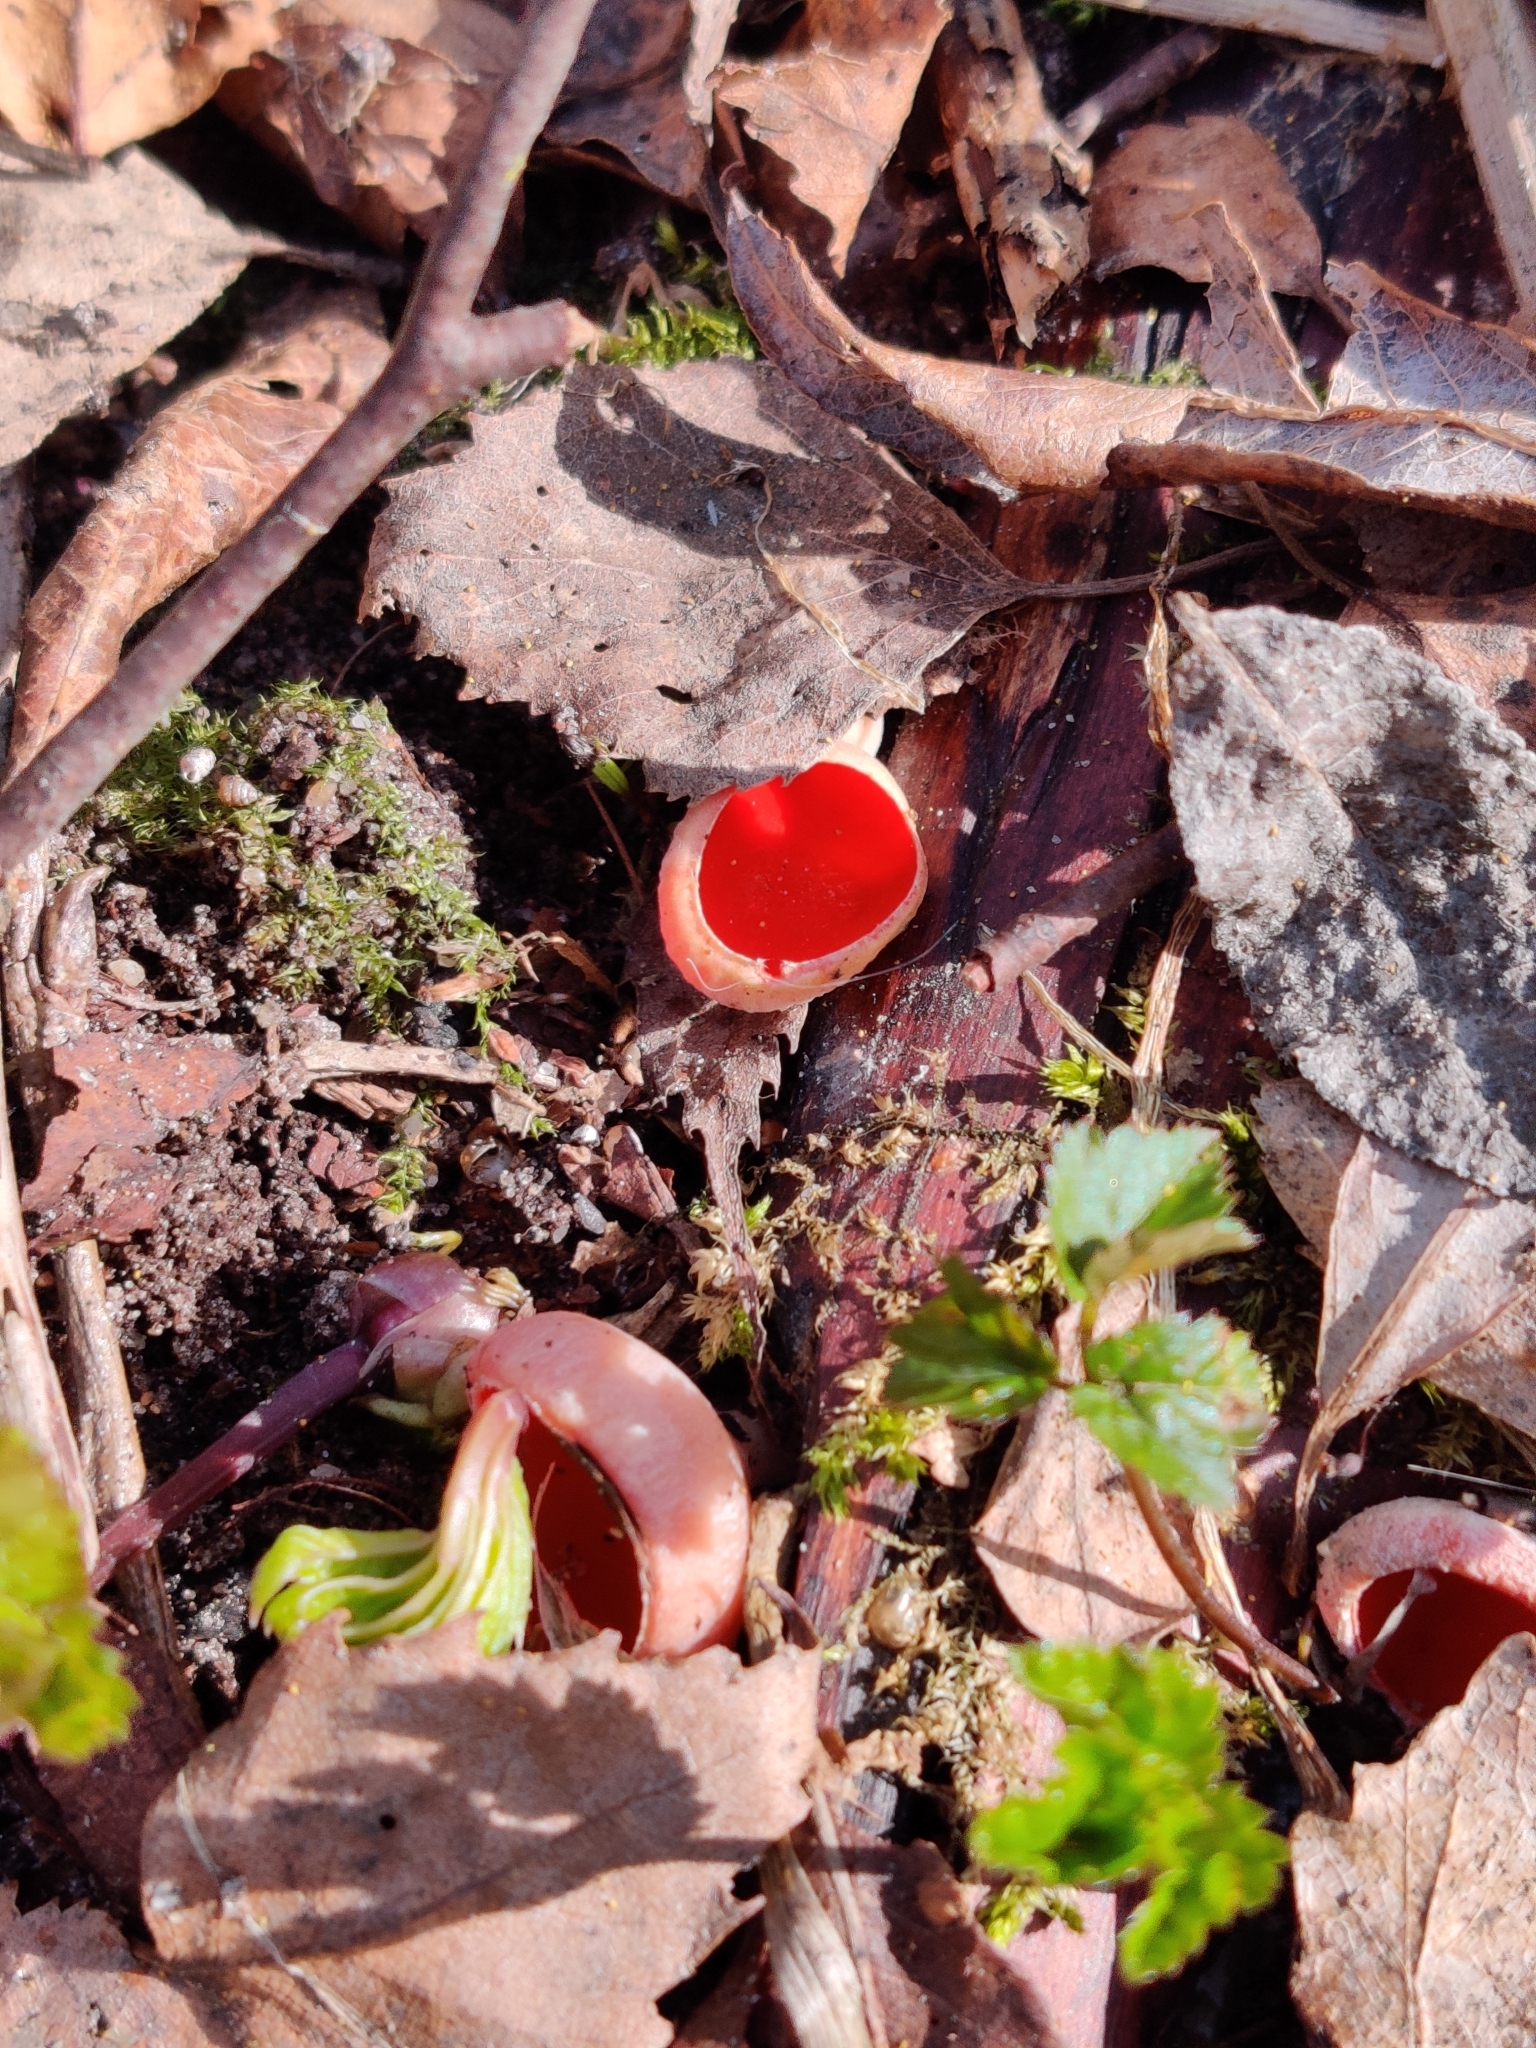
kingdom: Fungi
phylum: Ascomycota
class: Pezizomycetes
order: Pezizales
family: Sarcoscyphaceae
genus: Sarcoscypha
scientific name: Sarcoscypha austriaca
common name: Scarlet elfcup
